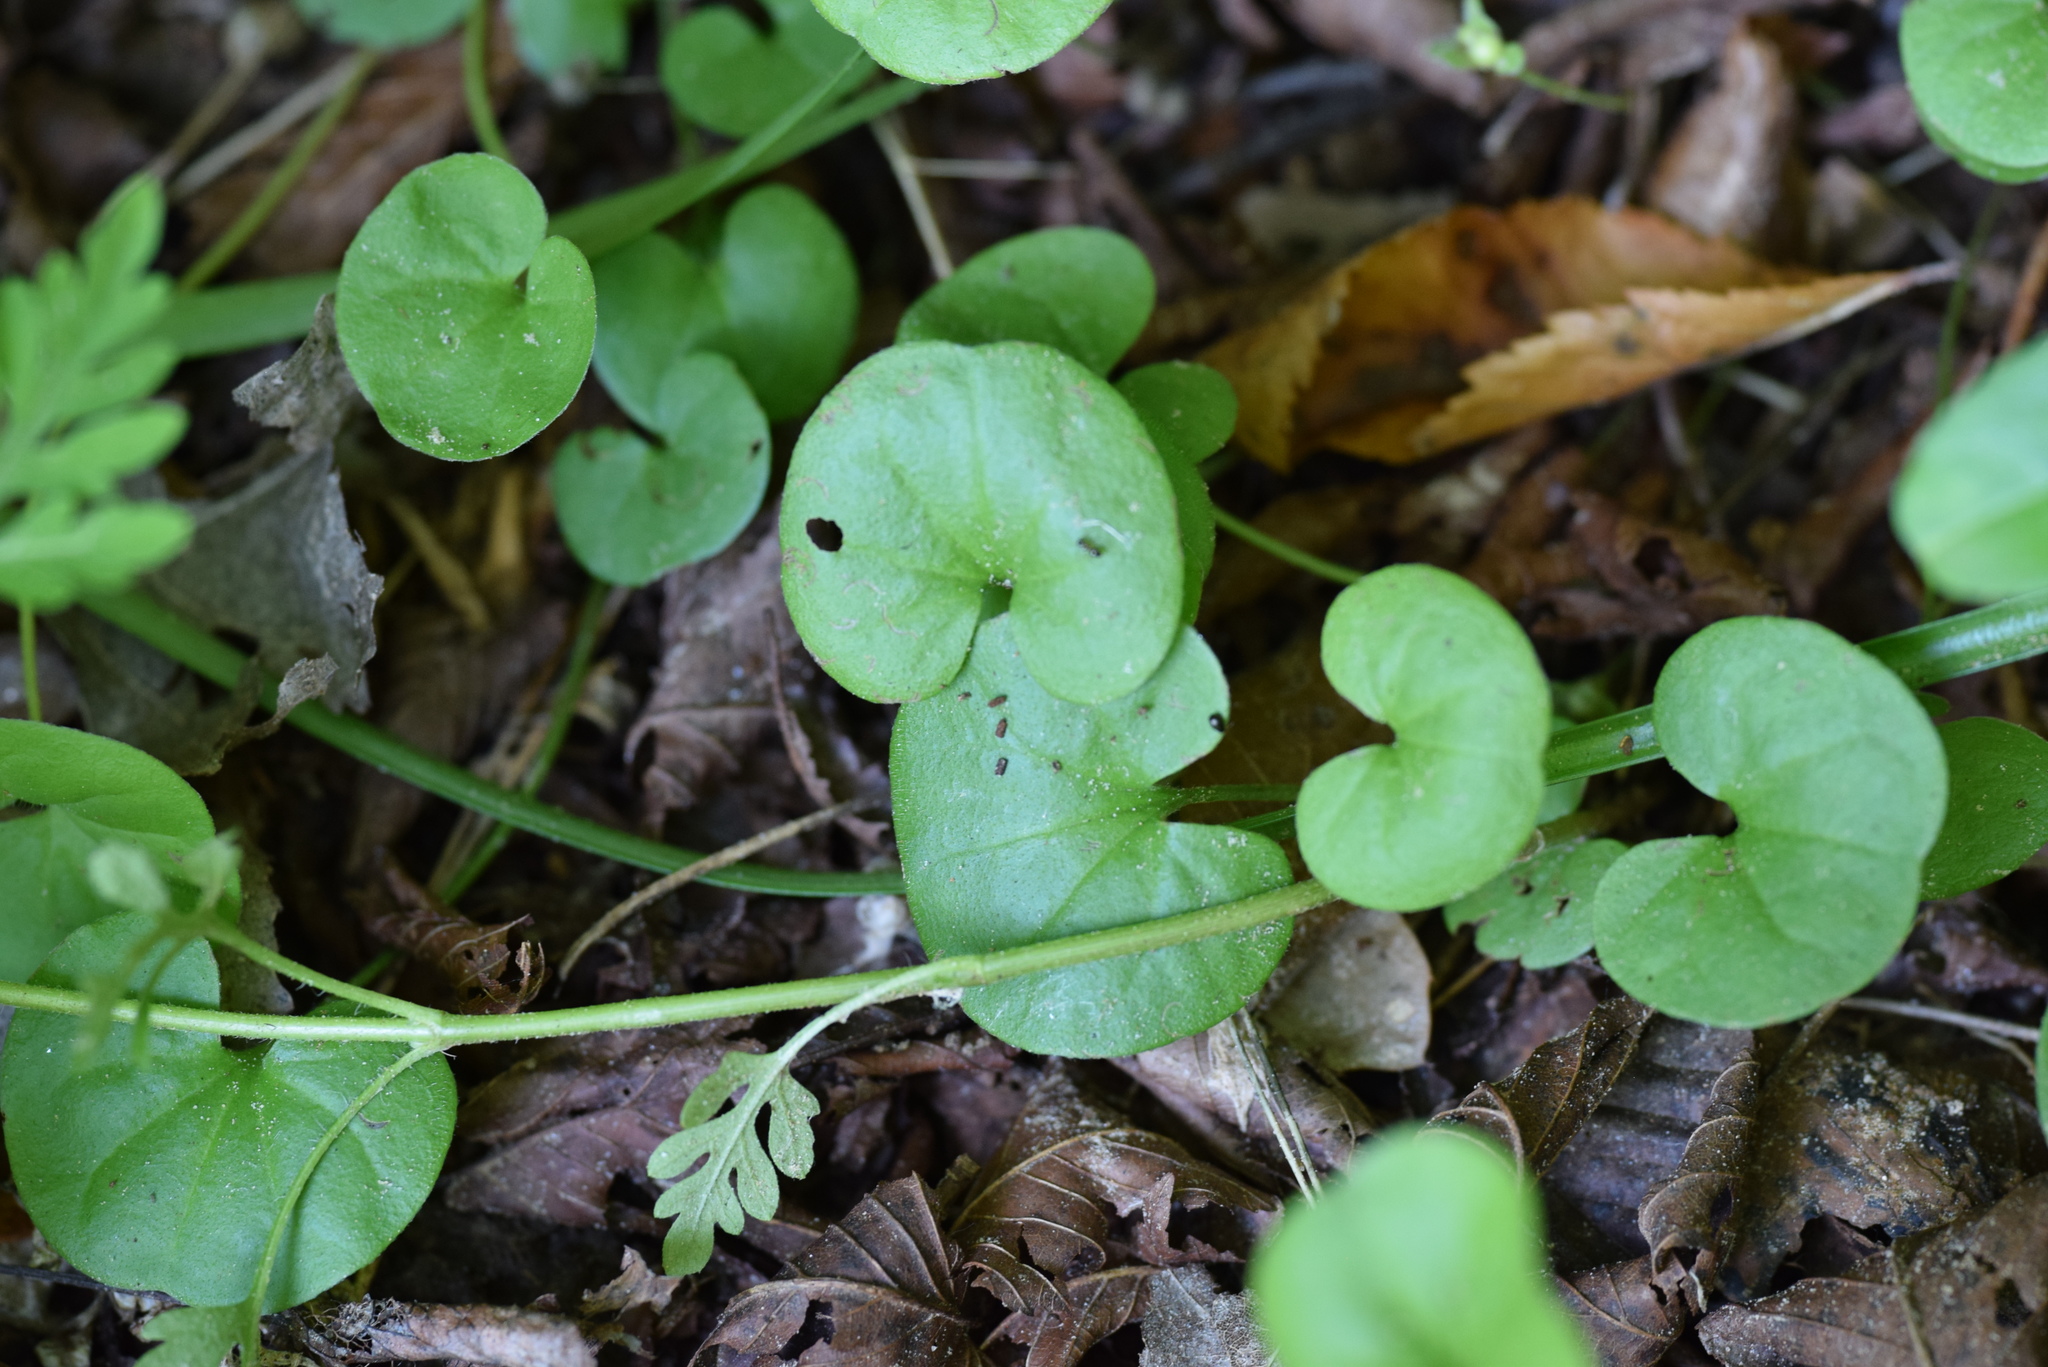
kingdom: Plantae
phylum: Tracheophyta
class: Magnoliopsida
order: Solanales
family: Convolvulaceae
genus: Dichondra
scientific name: Dichondra carolinensis
